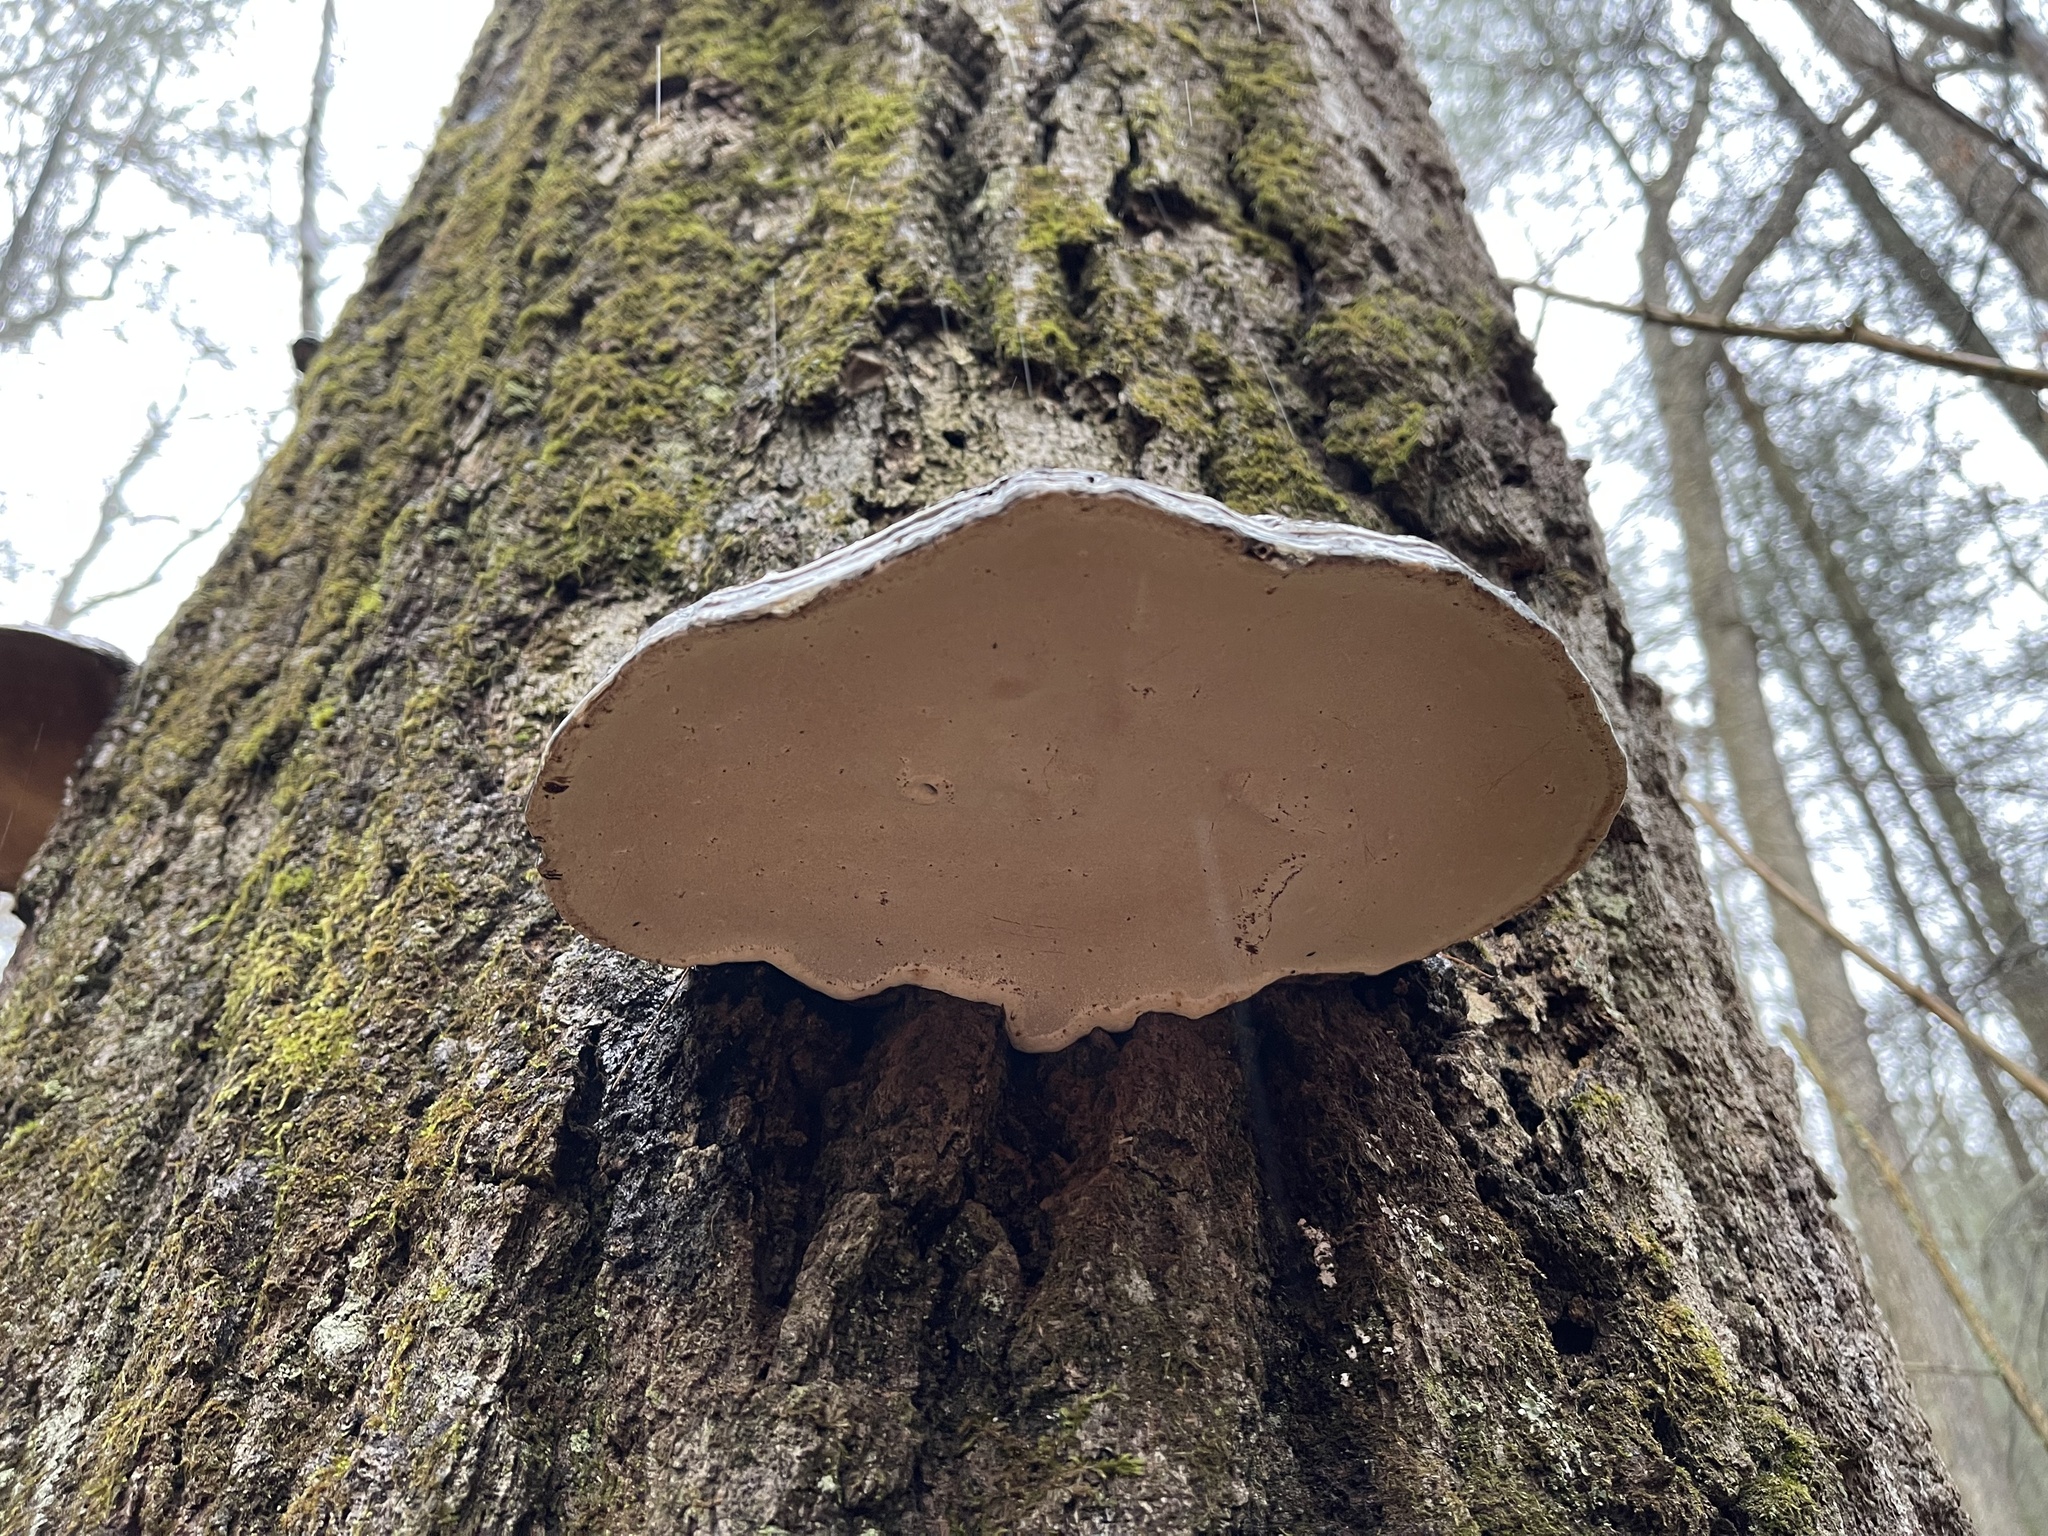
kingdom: Fungi
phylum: Basidiomycota
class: Agaricomycetes
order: Polyporales
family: Polyporaceae
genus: Ganoderma
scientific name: Ganoderma applanatum
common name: Artist's bracket
